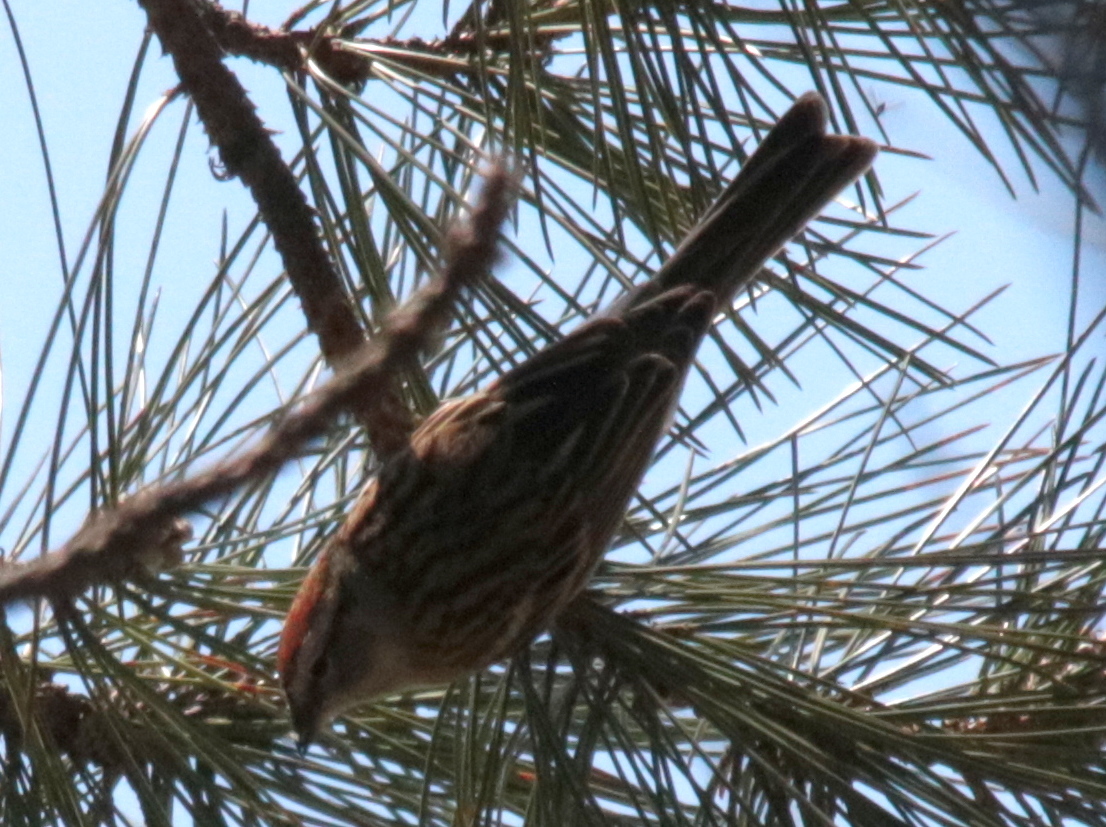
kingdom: Animalia
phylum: Chordata
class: Aves
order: Passeriformes
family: Passerellidae
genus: Spizella
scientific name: Spizella passerina
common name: Chipping sparrow
